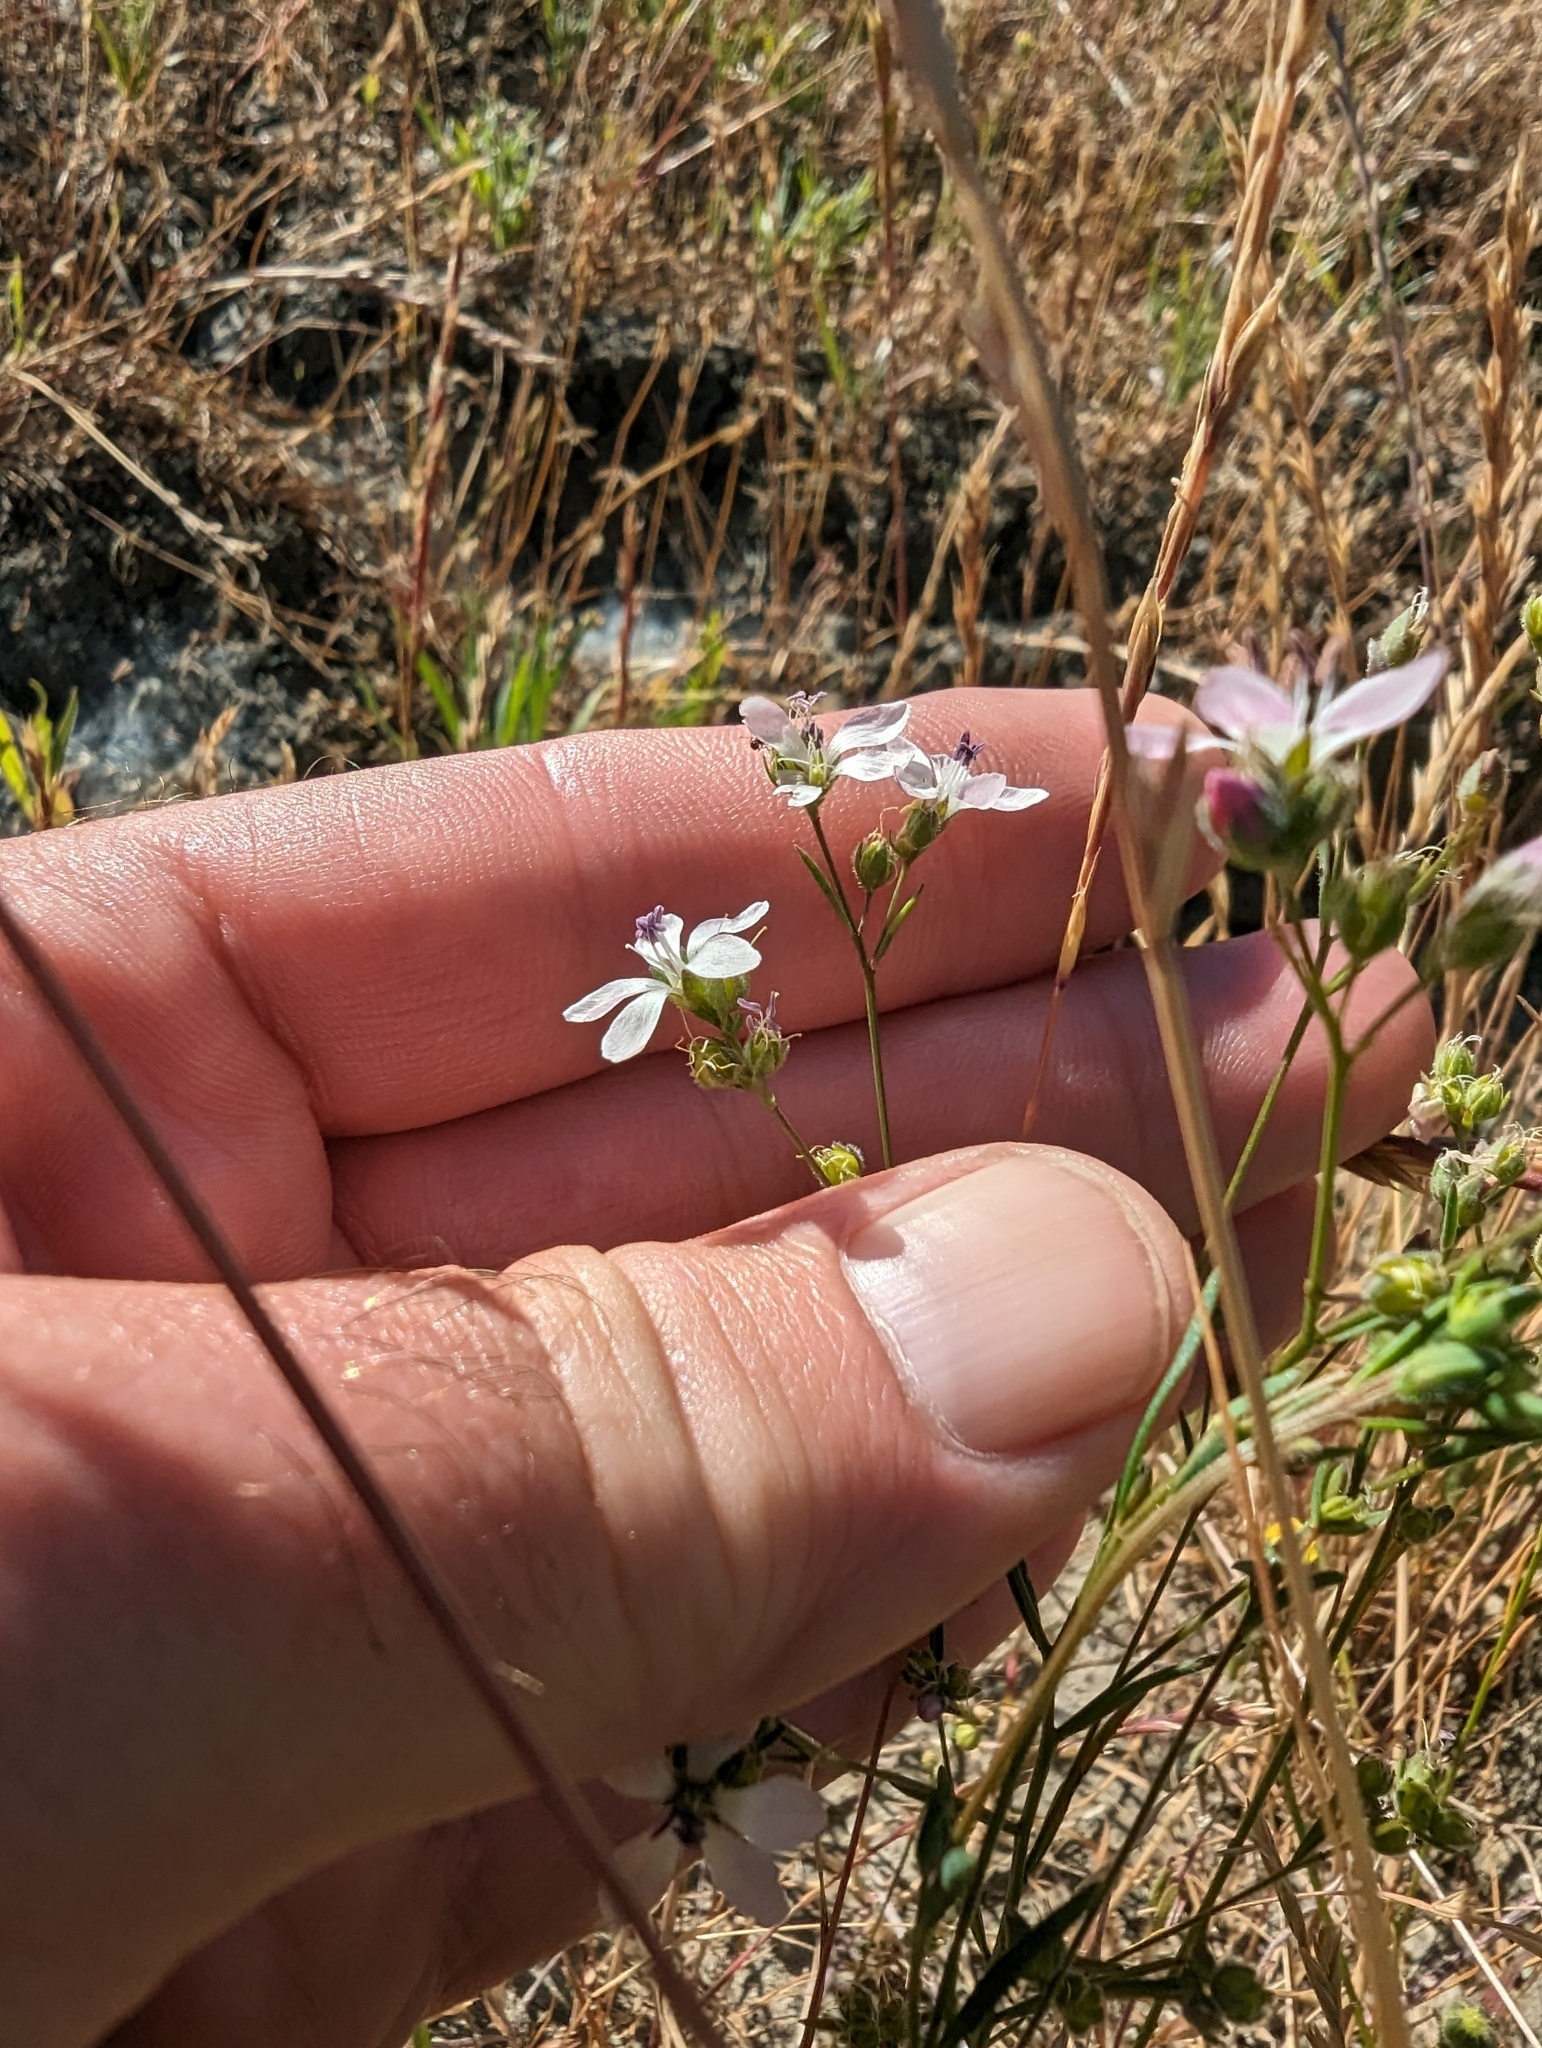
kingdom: Plantae
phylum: Tracheophyta
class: Magnoliopsida
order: Malpighiales
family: Linaceae
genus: Hesperolinon
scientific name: Hesperolinon congestum
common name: Marin dwarf-flax
